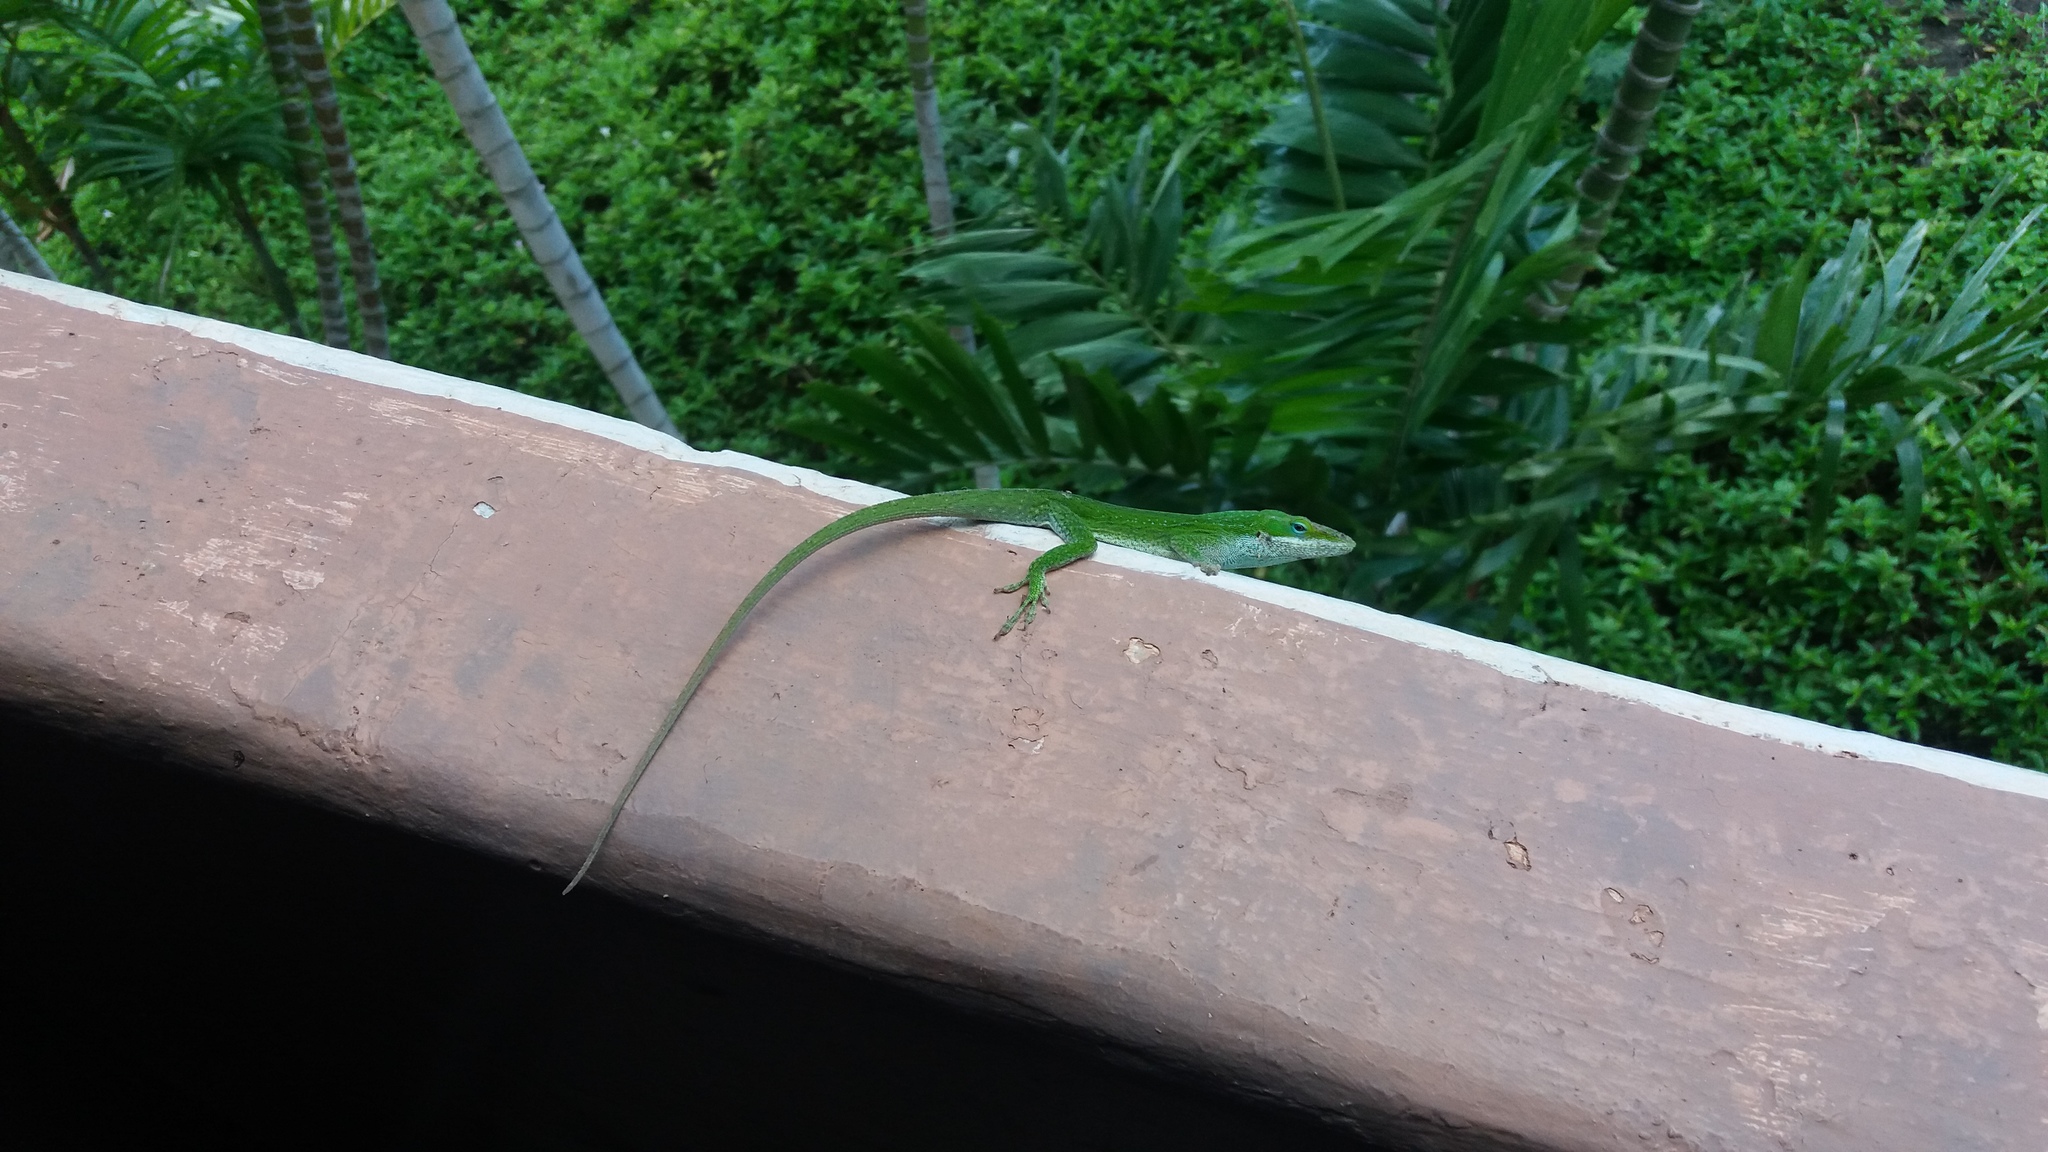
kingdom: Animalia
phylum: Chordata
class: Squamata
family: Dactyloidae
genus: Anolis
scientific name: Anolis carolinensis
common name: Green anole
